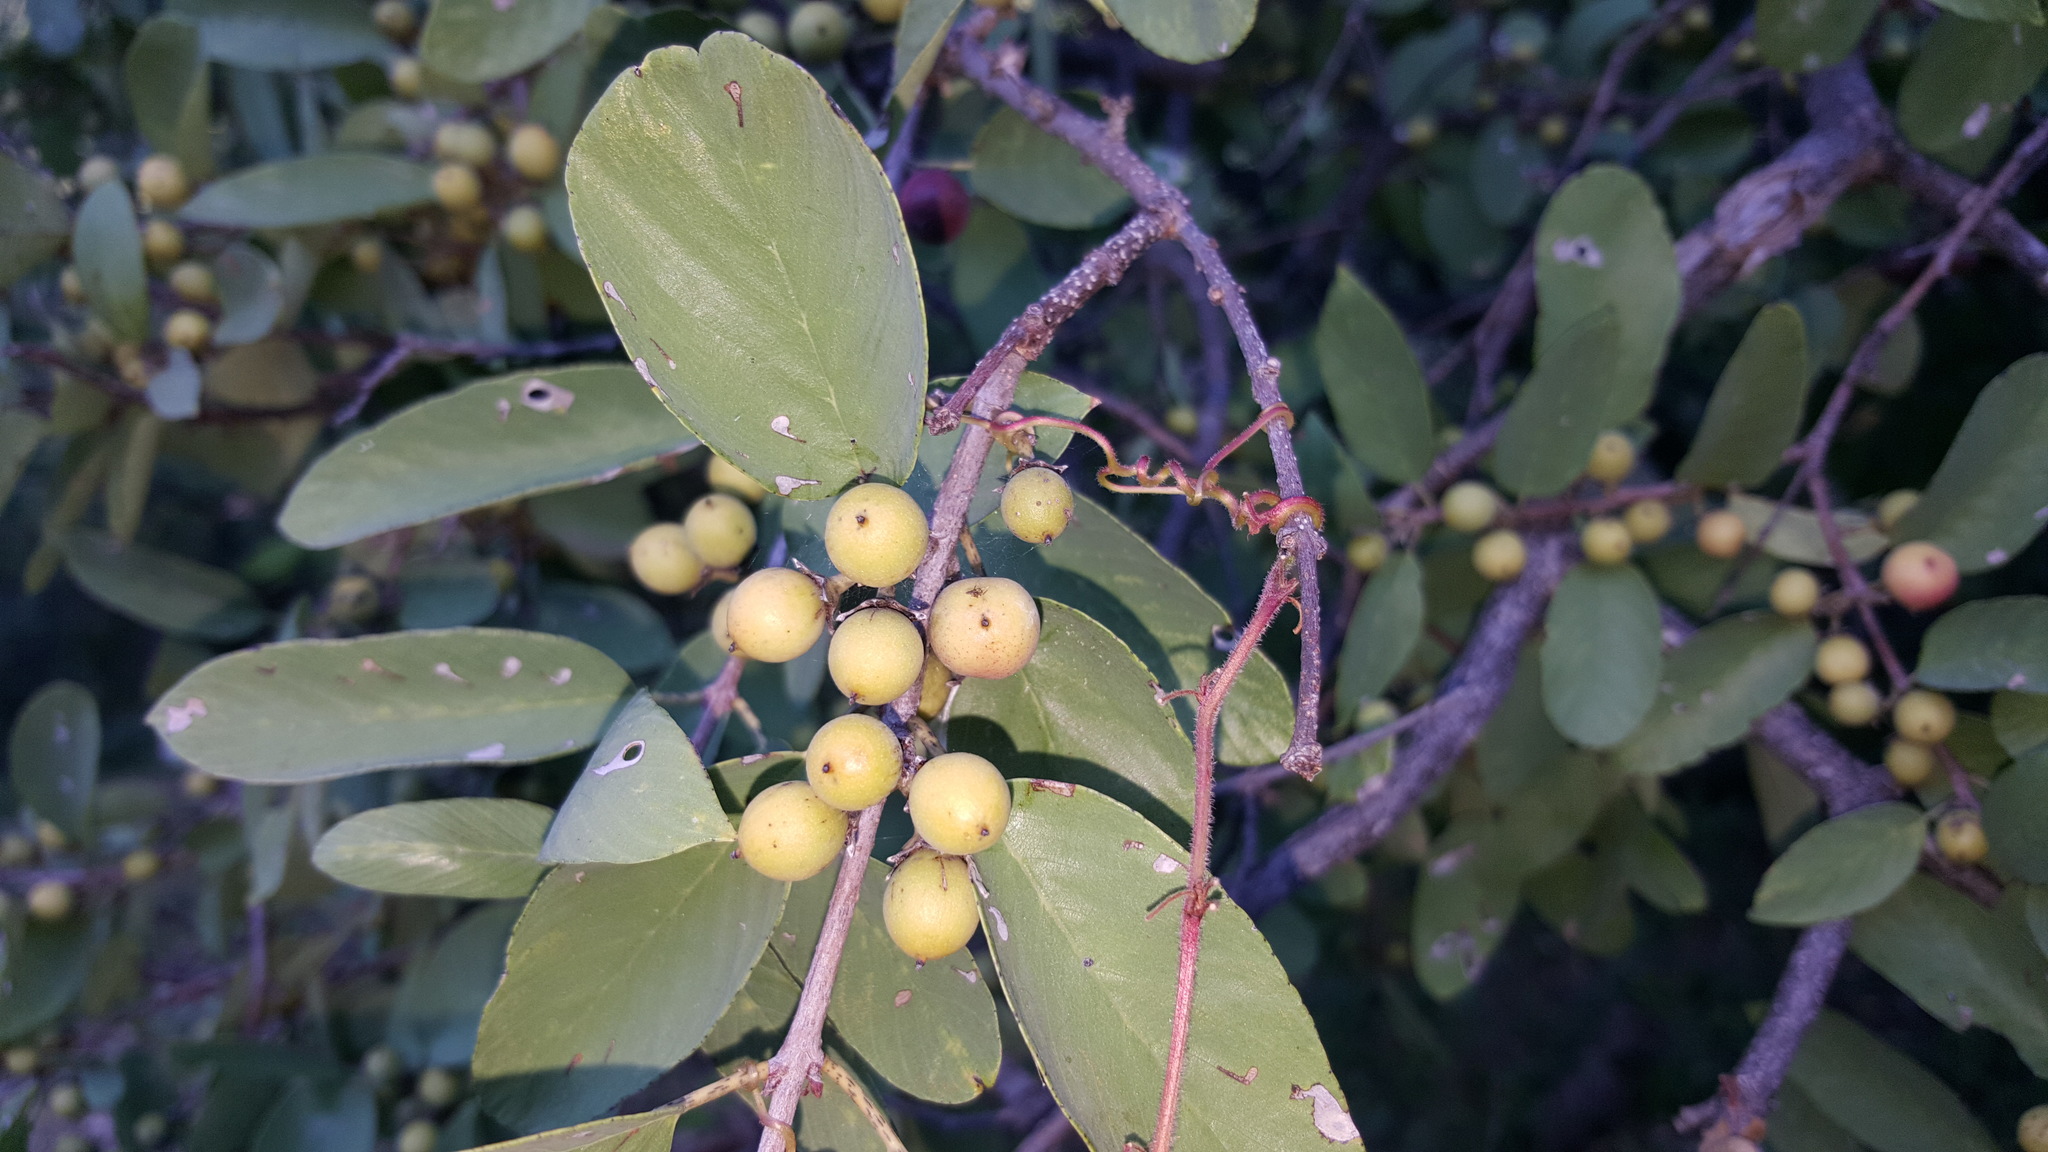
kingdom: Plantae
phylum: Tracheophyta
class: Magnoliopsida
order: Rosales
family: Rhamnaceae
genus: Karwinskia
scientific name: Karwinskia humboldtiana
